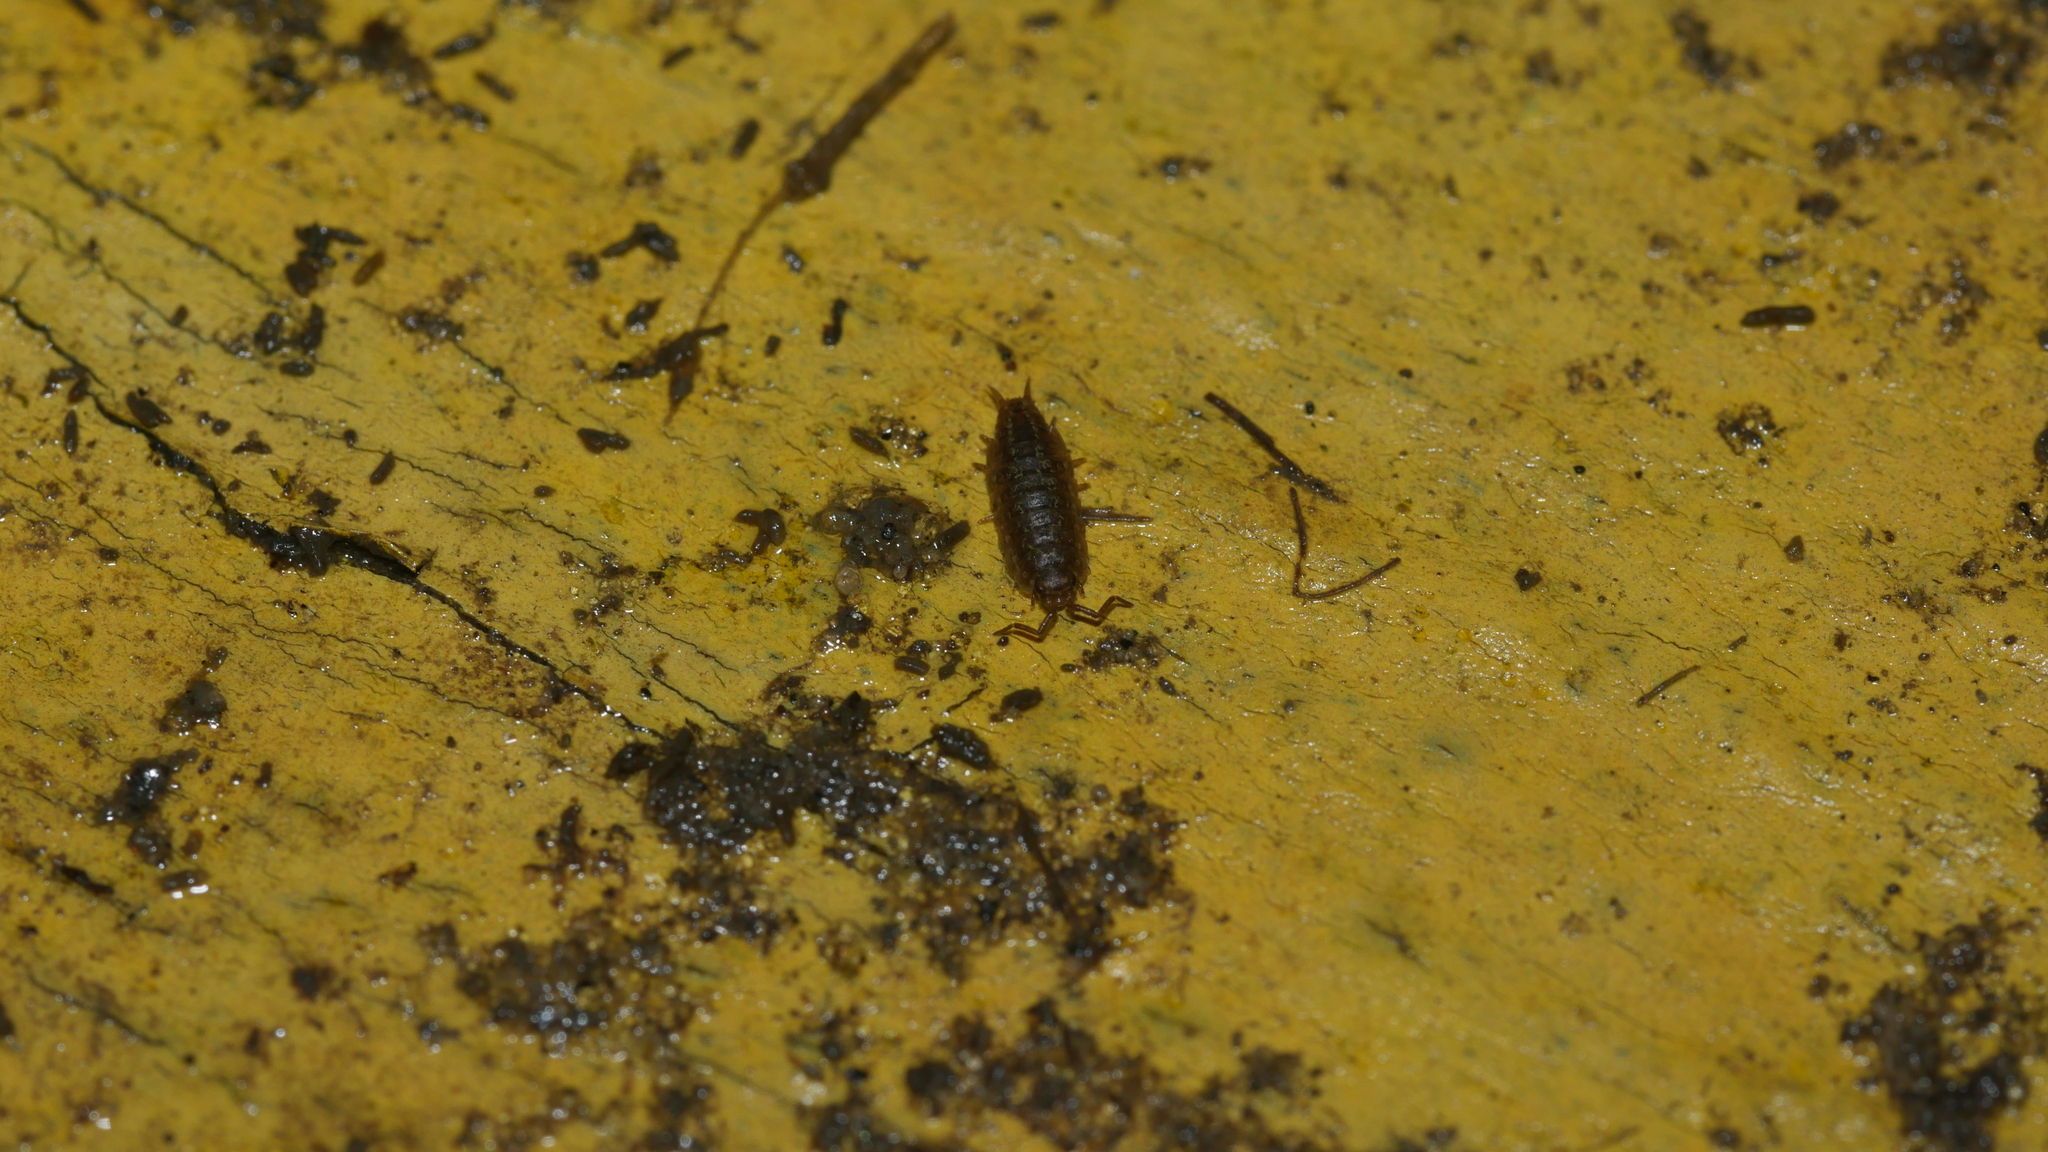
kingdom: Animalia
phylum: Arthropoda
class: Malacostraca
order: Isopoda
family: Halophilosciidae
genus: Littorophiloscia
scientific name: Littorophiloscia vittata
